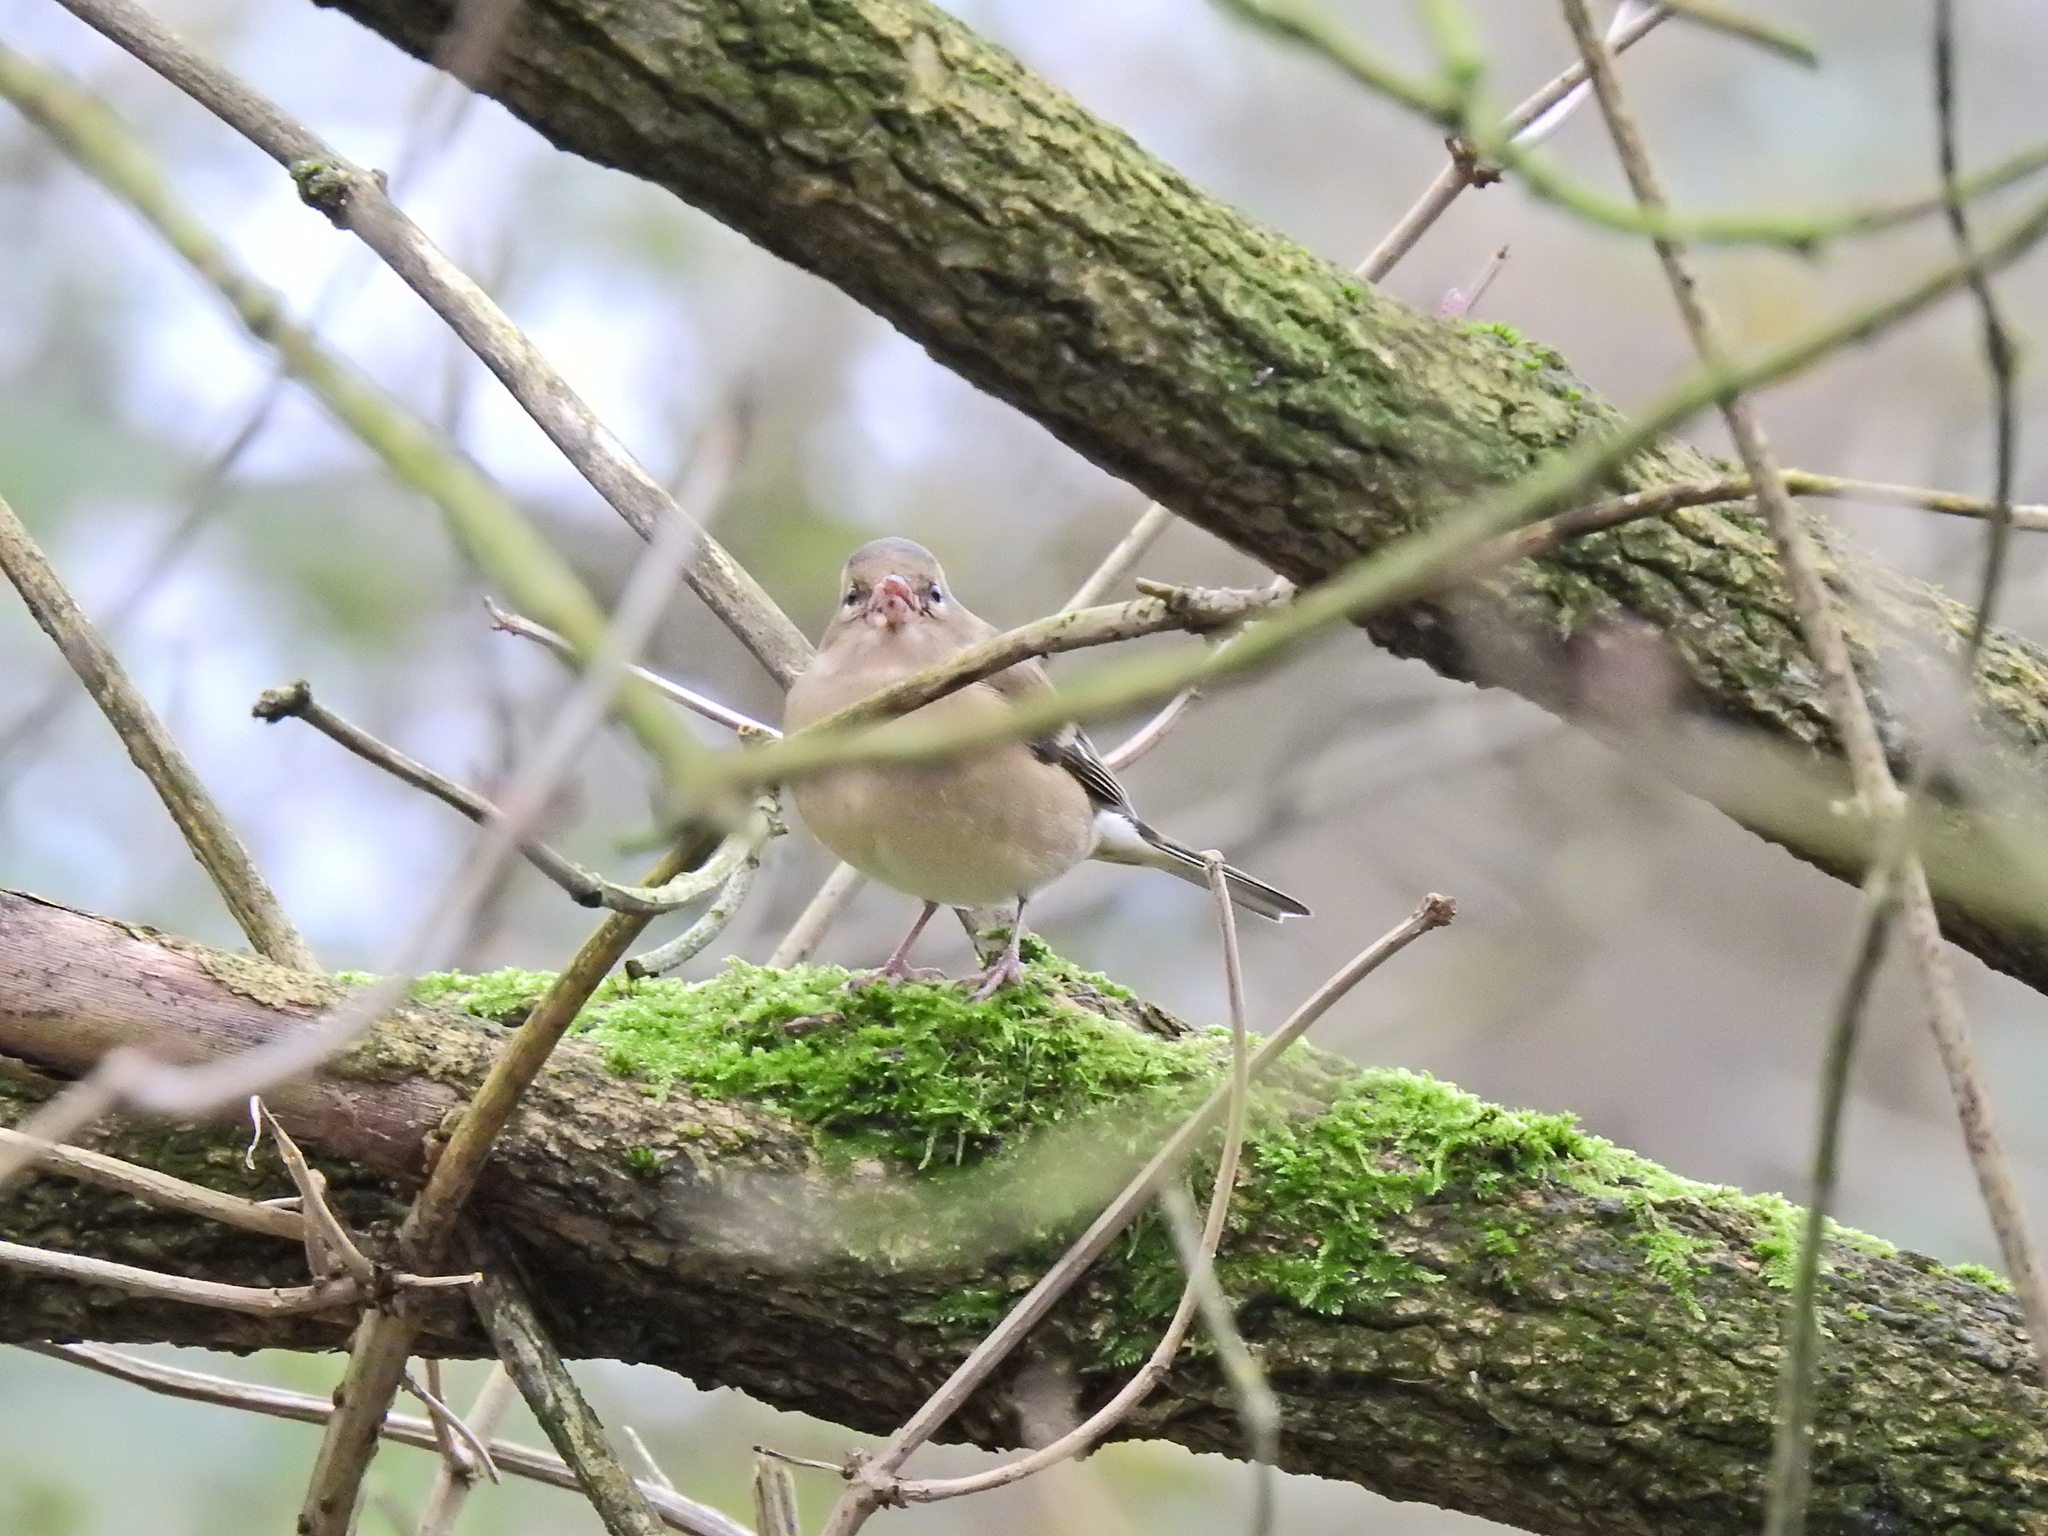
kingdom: Animalia
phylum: Chordata
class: Aves
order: Passeriformes
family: Fringillidae
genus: Fringilla
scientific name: Fringilla coelebs
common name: Common chaffinch
